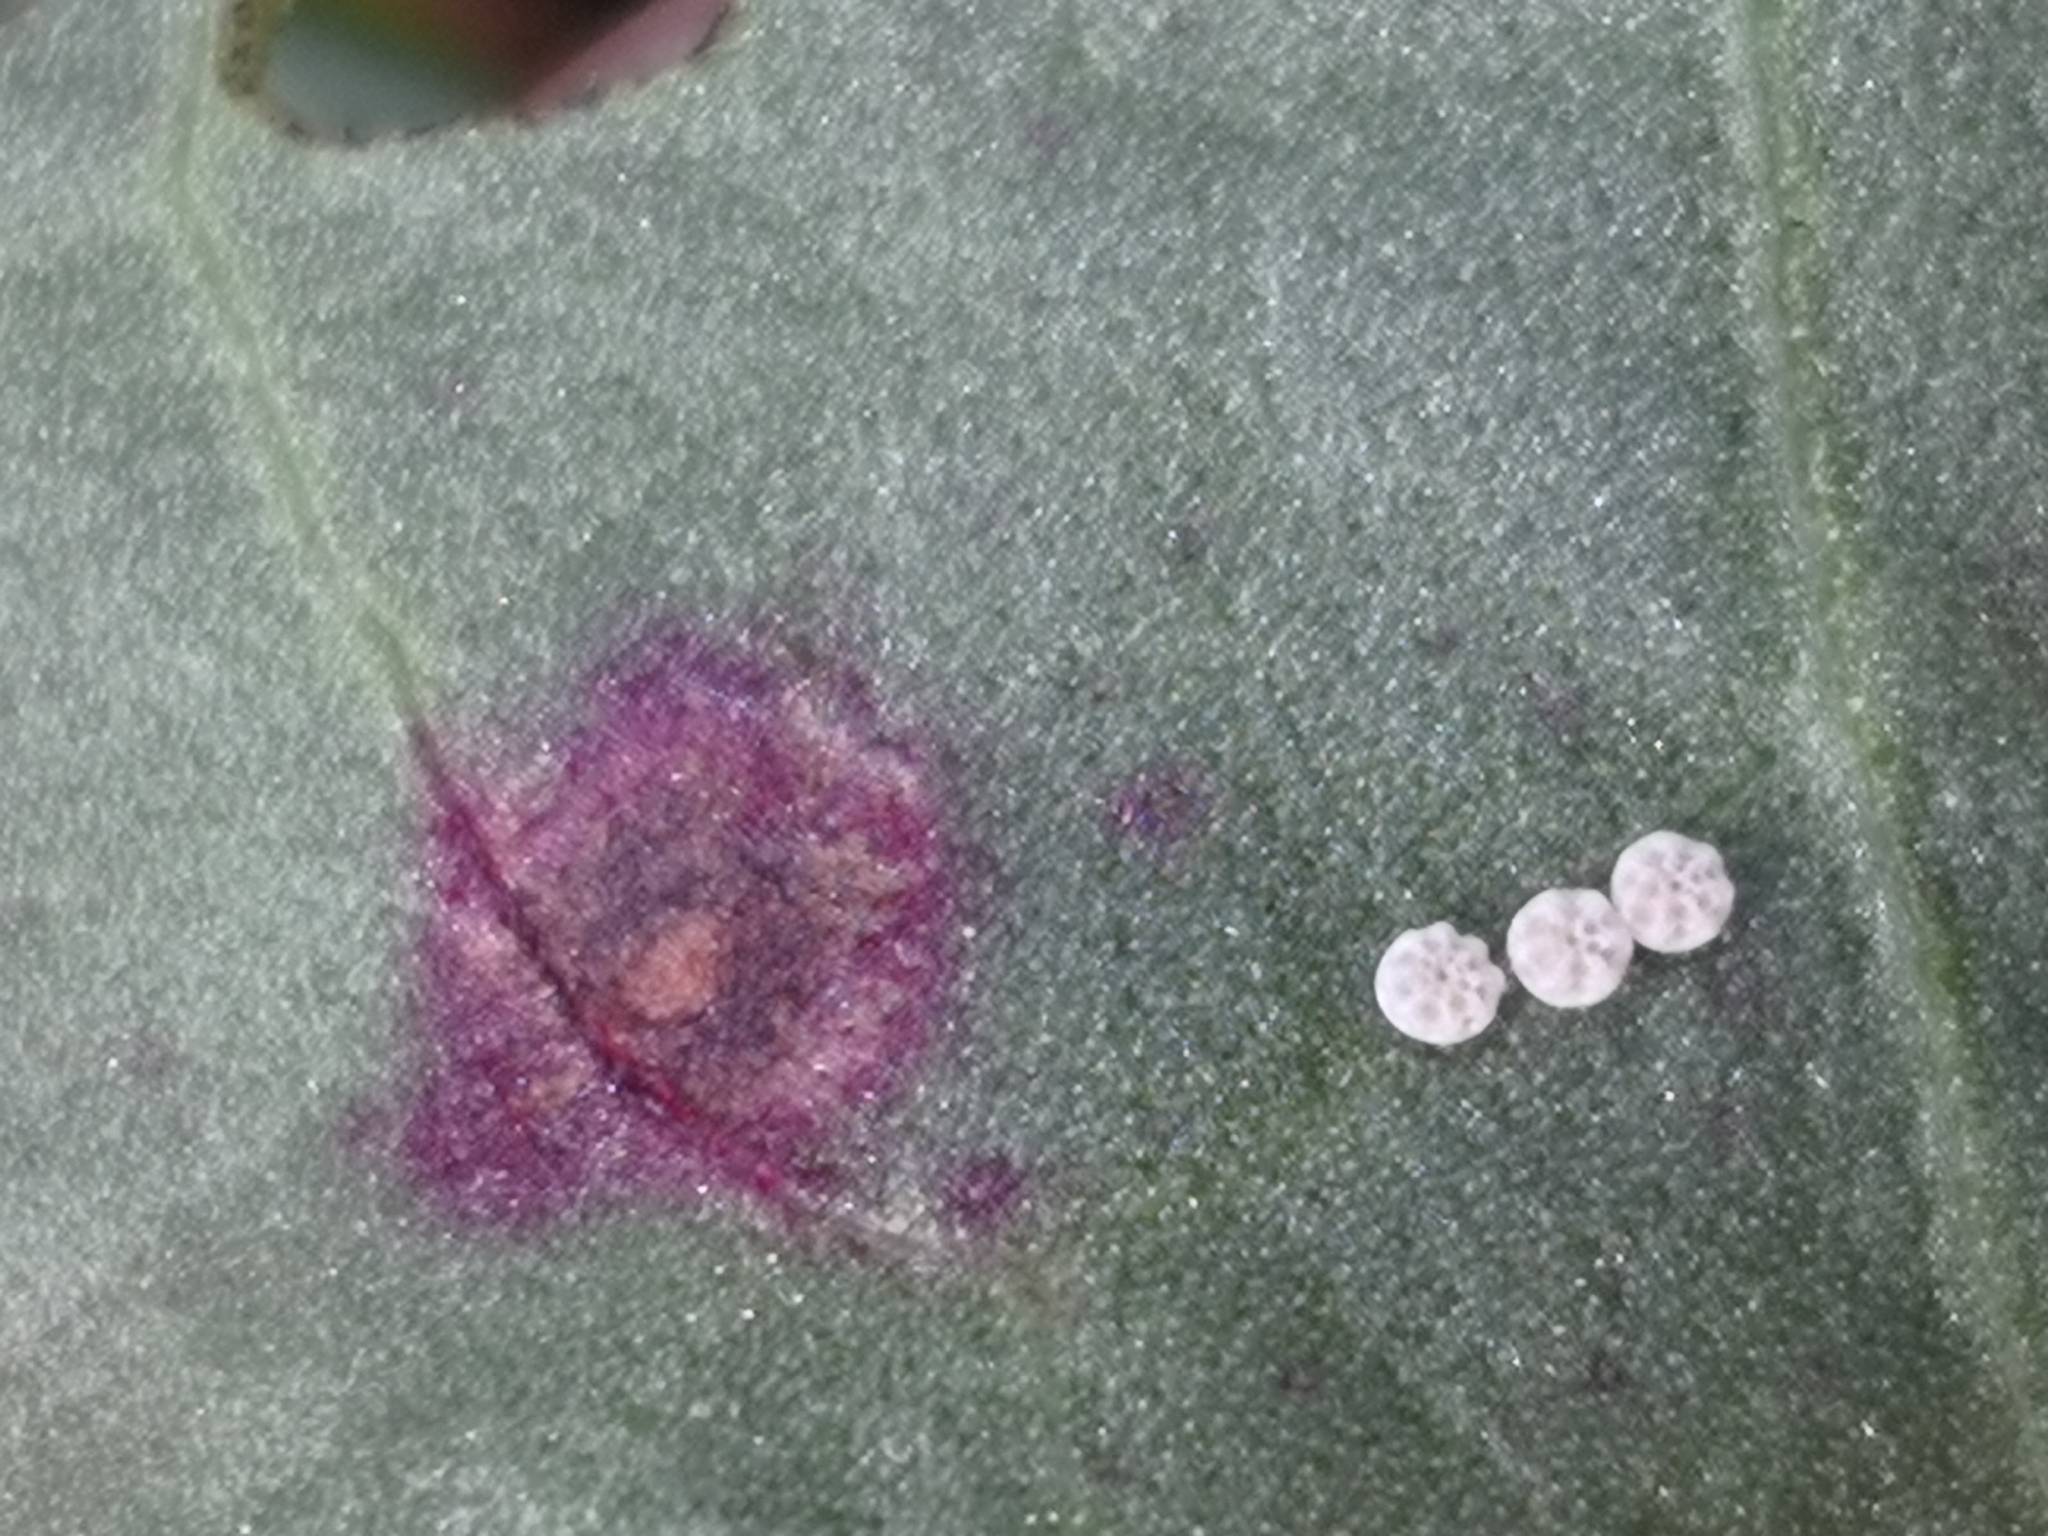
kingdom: Animalia
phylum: Arthropoda
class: Insecta
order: Lepidoptera
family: Lycaenidae
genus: Lycaena
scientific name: Lycaena dispar
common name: Large copper
